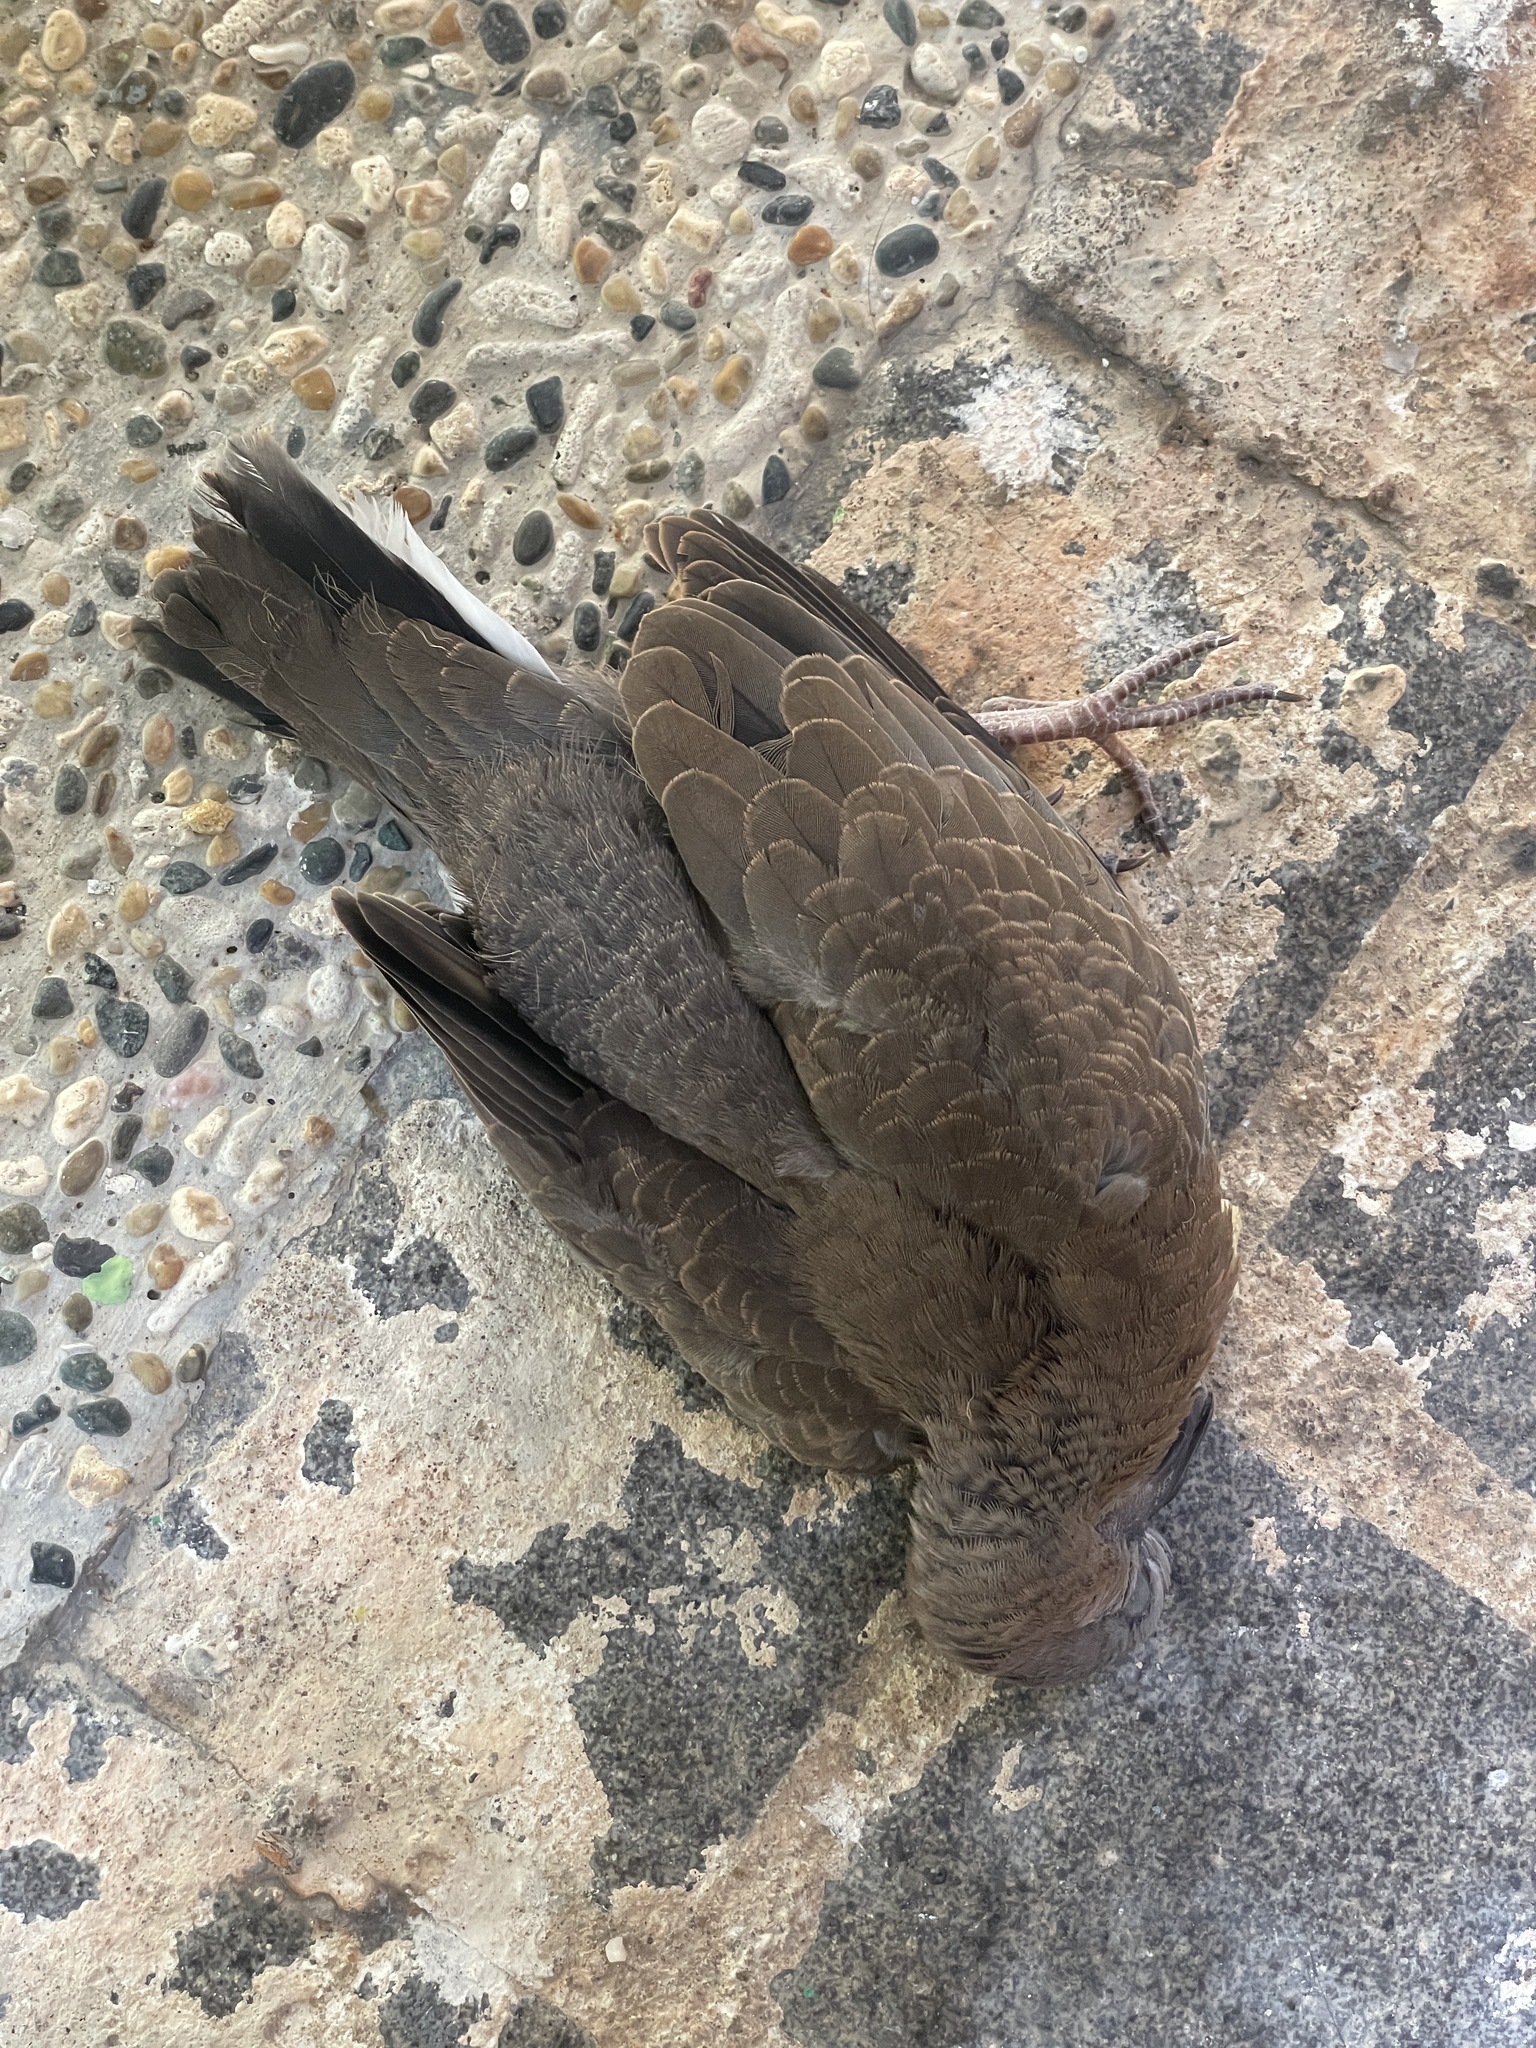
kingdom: Animalia
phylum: Chordata
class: Aves
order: Columbiformes
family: Columbidae
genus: Spilopelia
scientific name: Spilopelia chinensis
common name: Spotted dove
